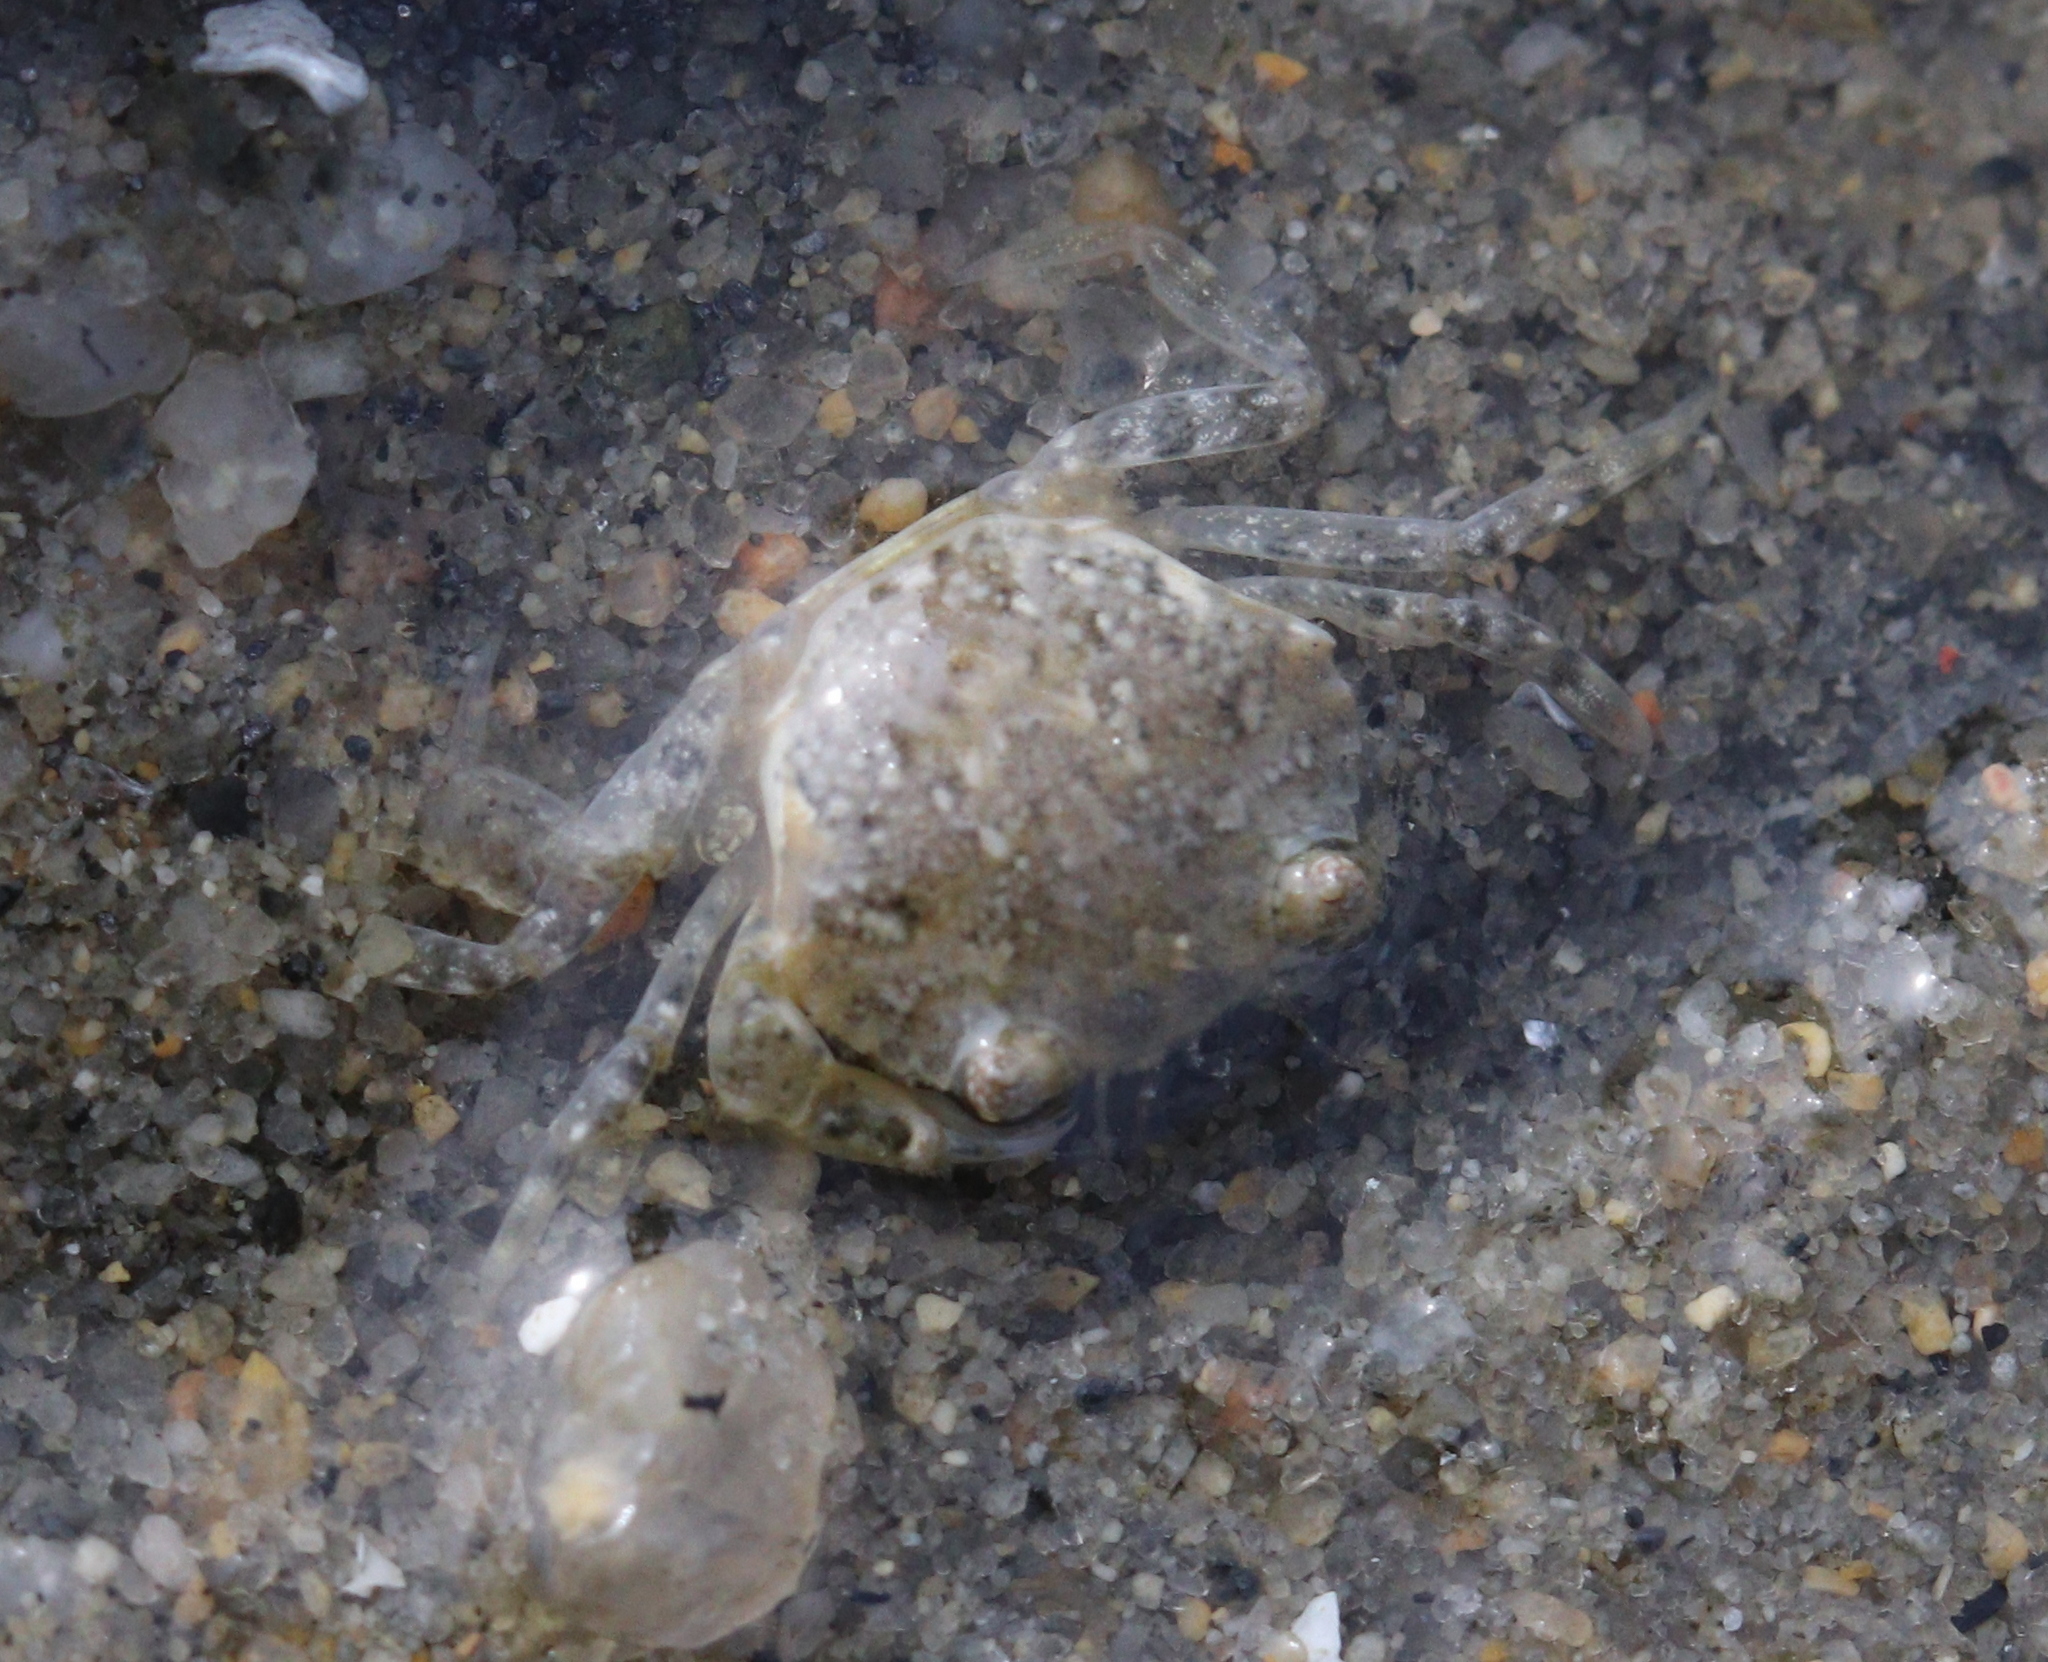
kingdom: Animalia
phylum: Arthropoda
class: Malacostraca
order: Decapoda
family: Carcinidae
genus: Carcinus
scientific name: Carcinus maenas
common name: European green crab
